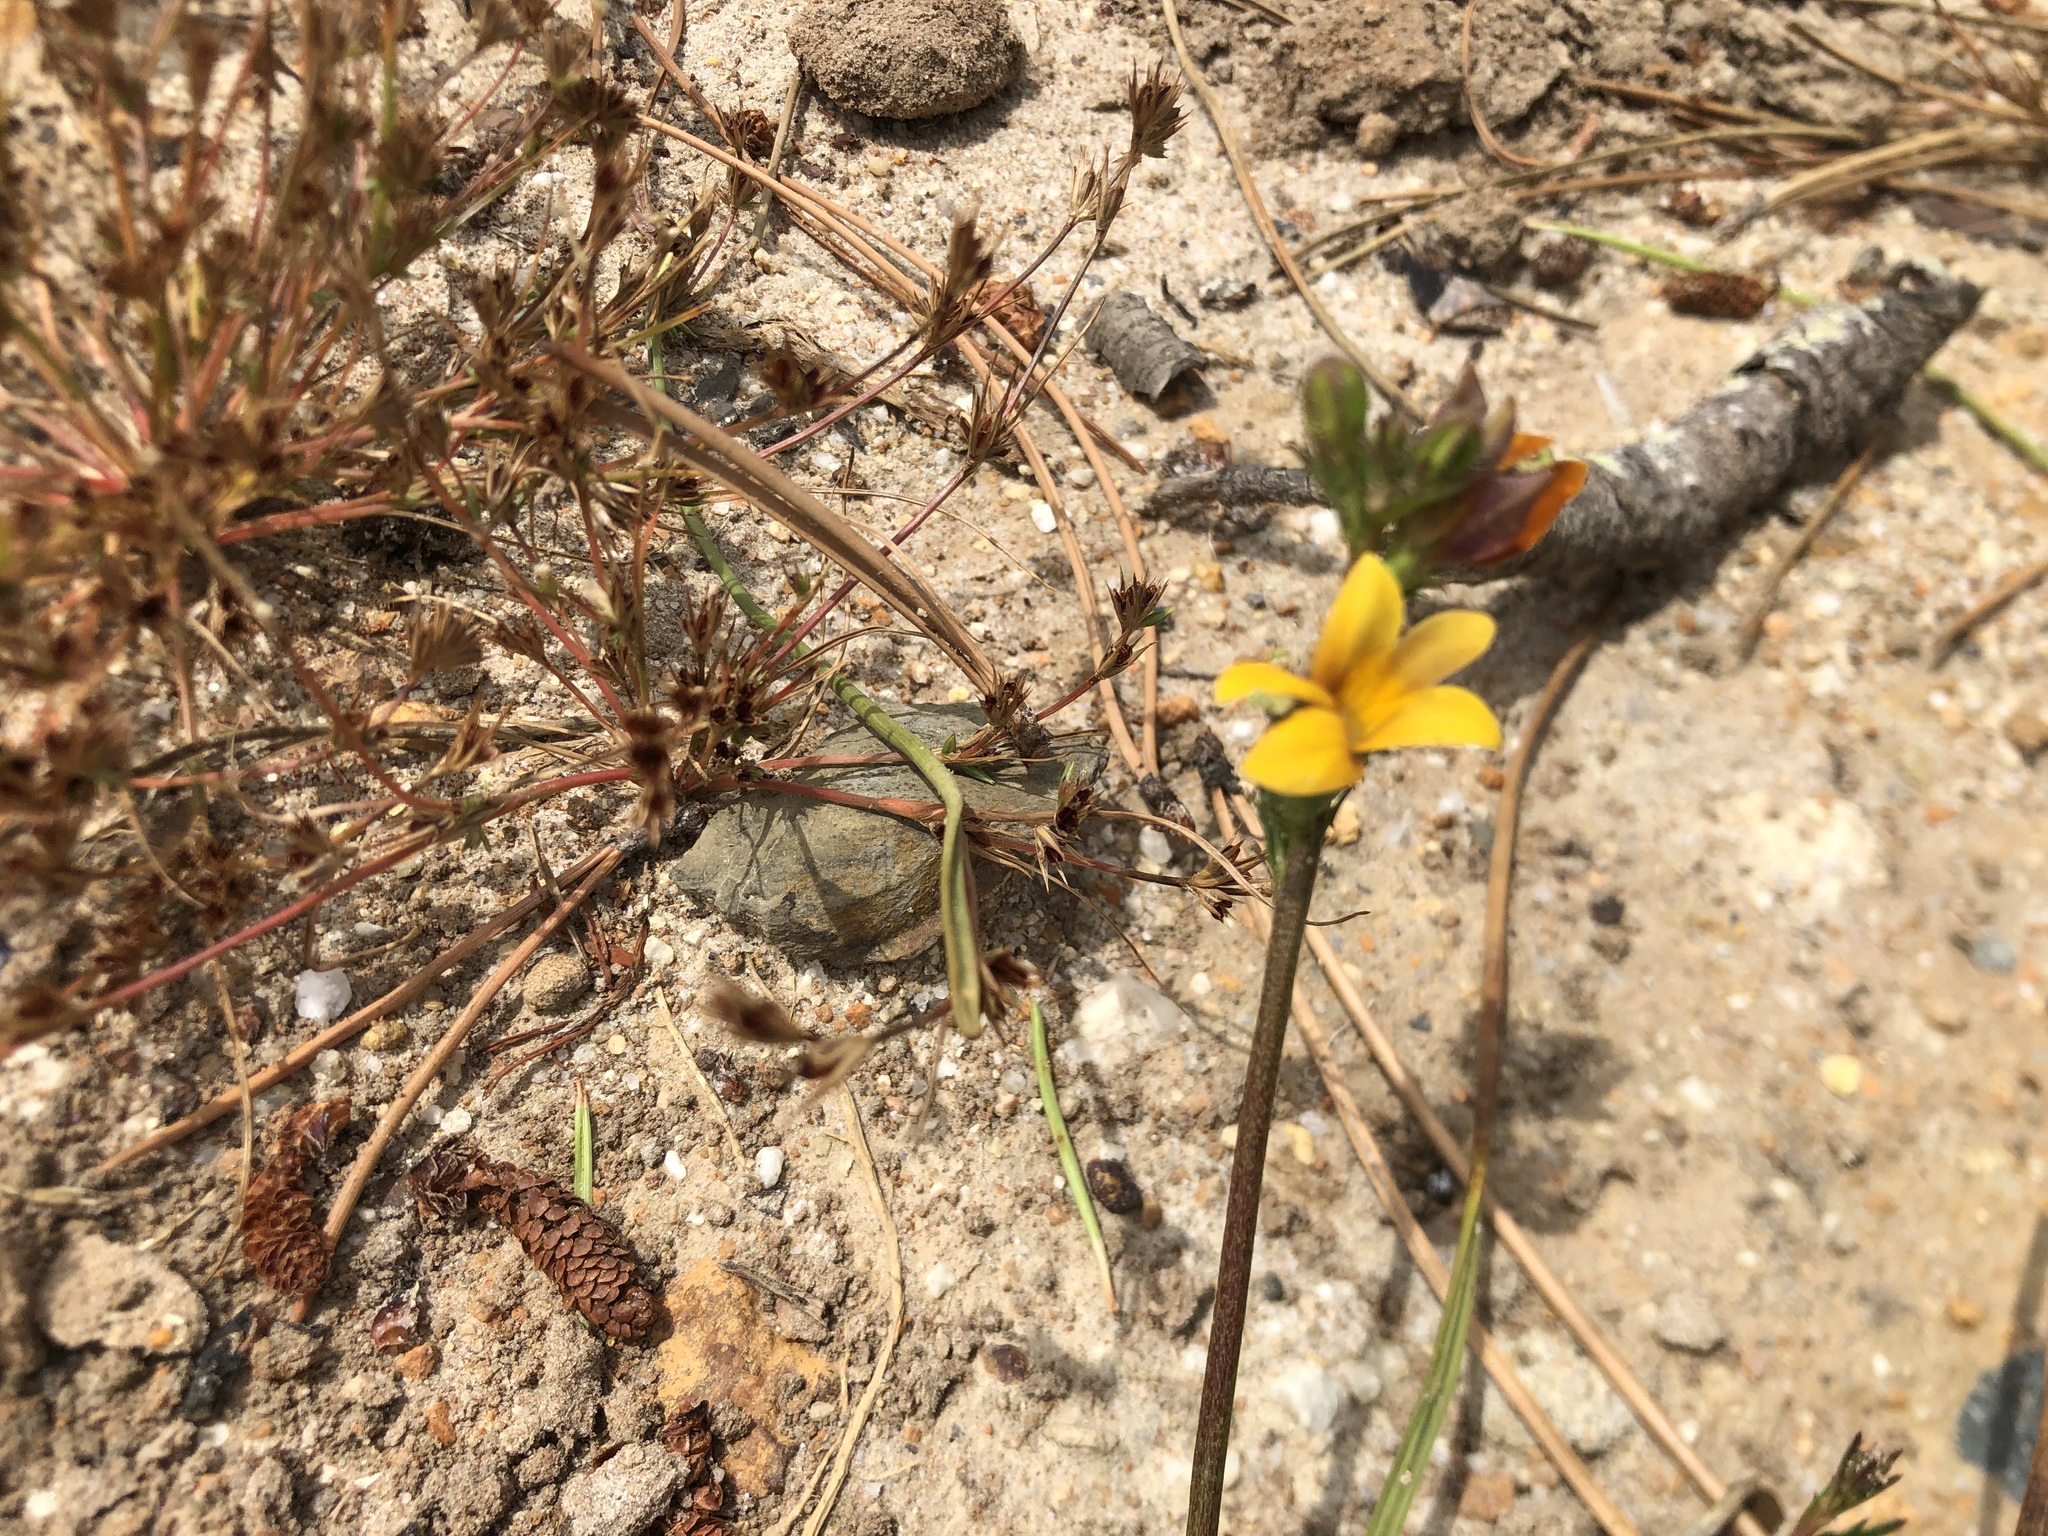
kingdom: Plantae
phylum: Tracheophyta
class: Magnoliopsida
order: Asterales
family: Campanulaceae
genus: Monopsis
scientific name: Monopsis lutea
